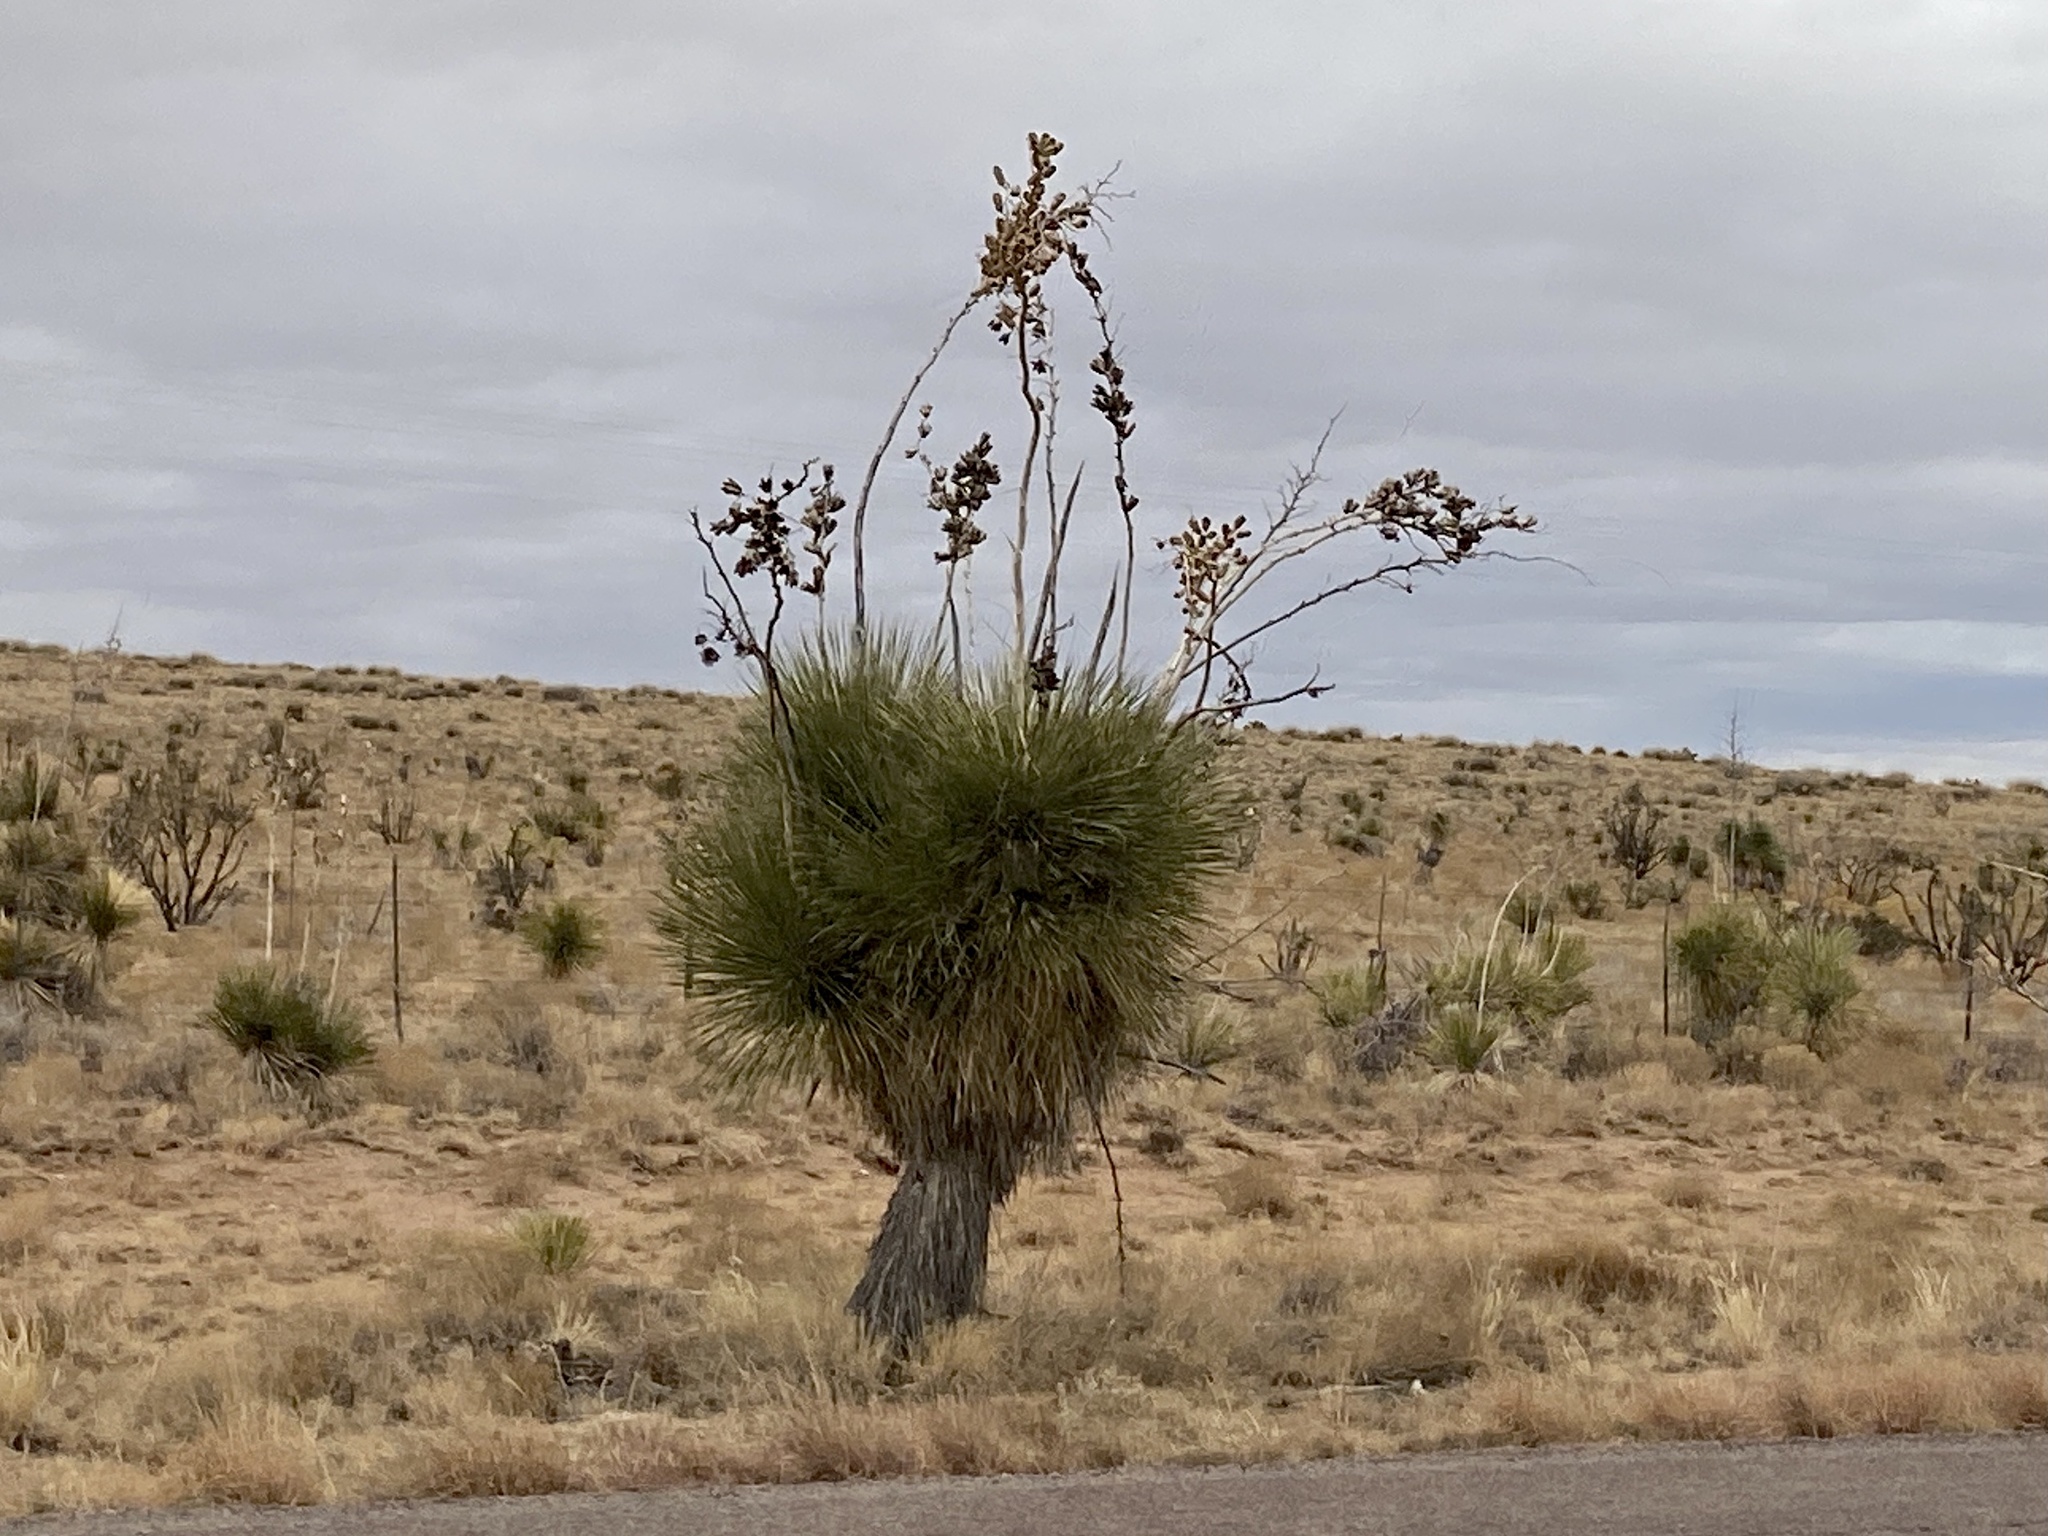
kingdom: Plantae
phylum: Tracheophyta
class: Liliopsida
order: Asparagales
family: Asparagaceae
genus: Yucca
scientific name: Yucca elata
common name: Palmella
